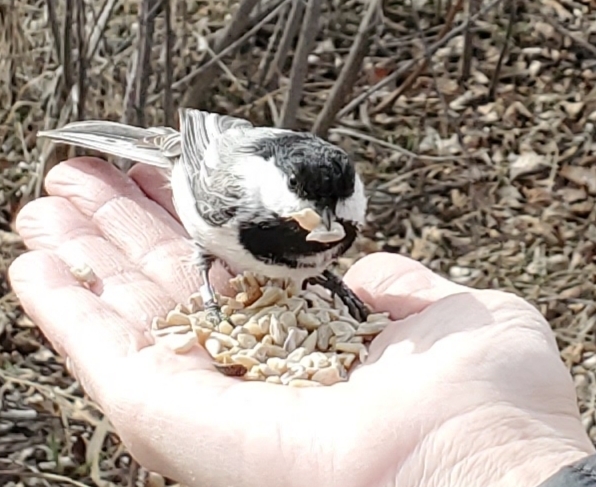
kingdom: Animalia
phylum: Chordata
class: Aves
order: Passeriformes
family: Paridae
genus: Poecile
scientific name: Poecile atricapillus
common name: Black-capped chickadee
